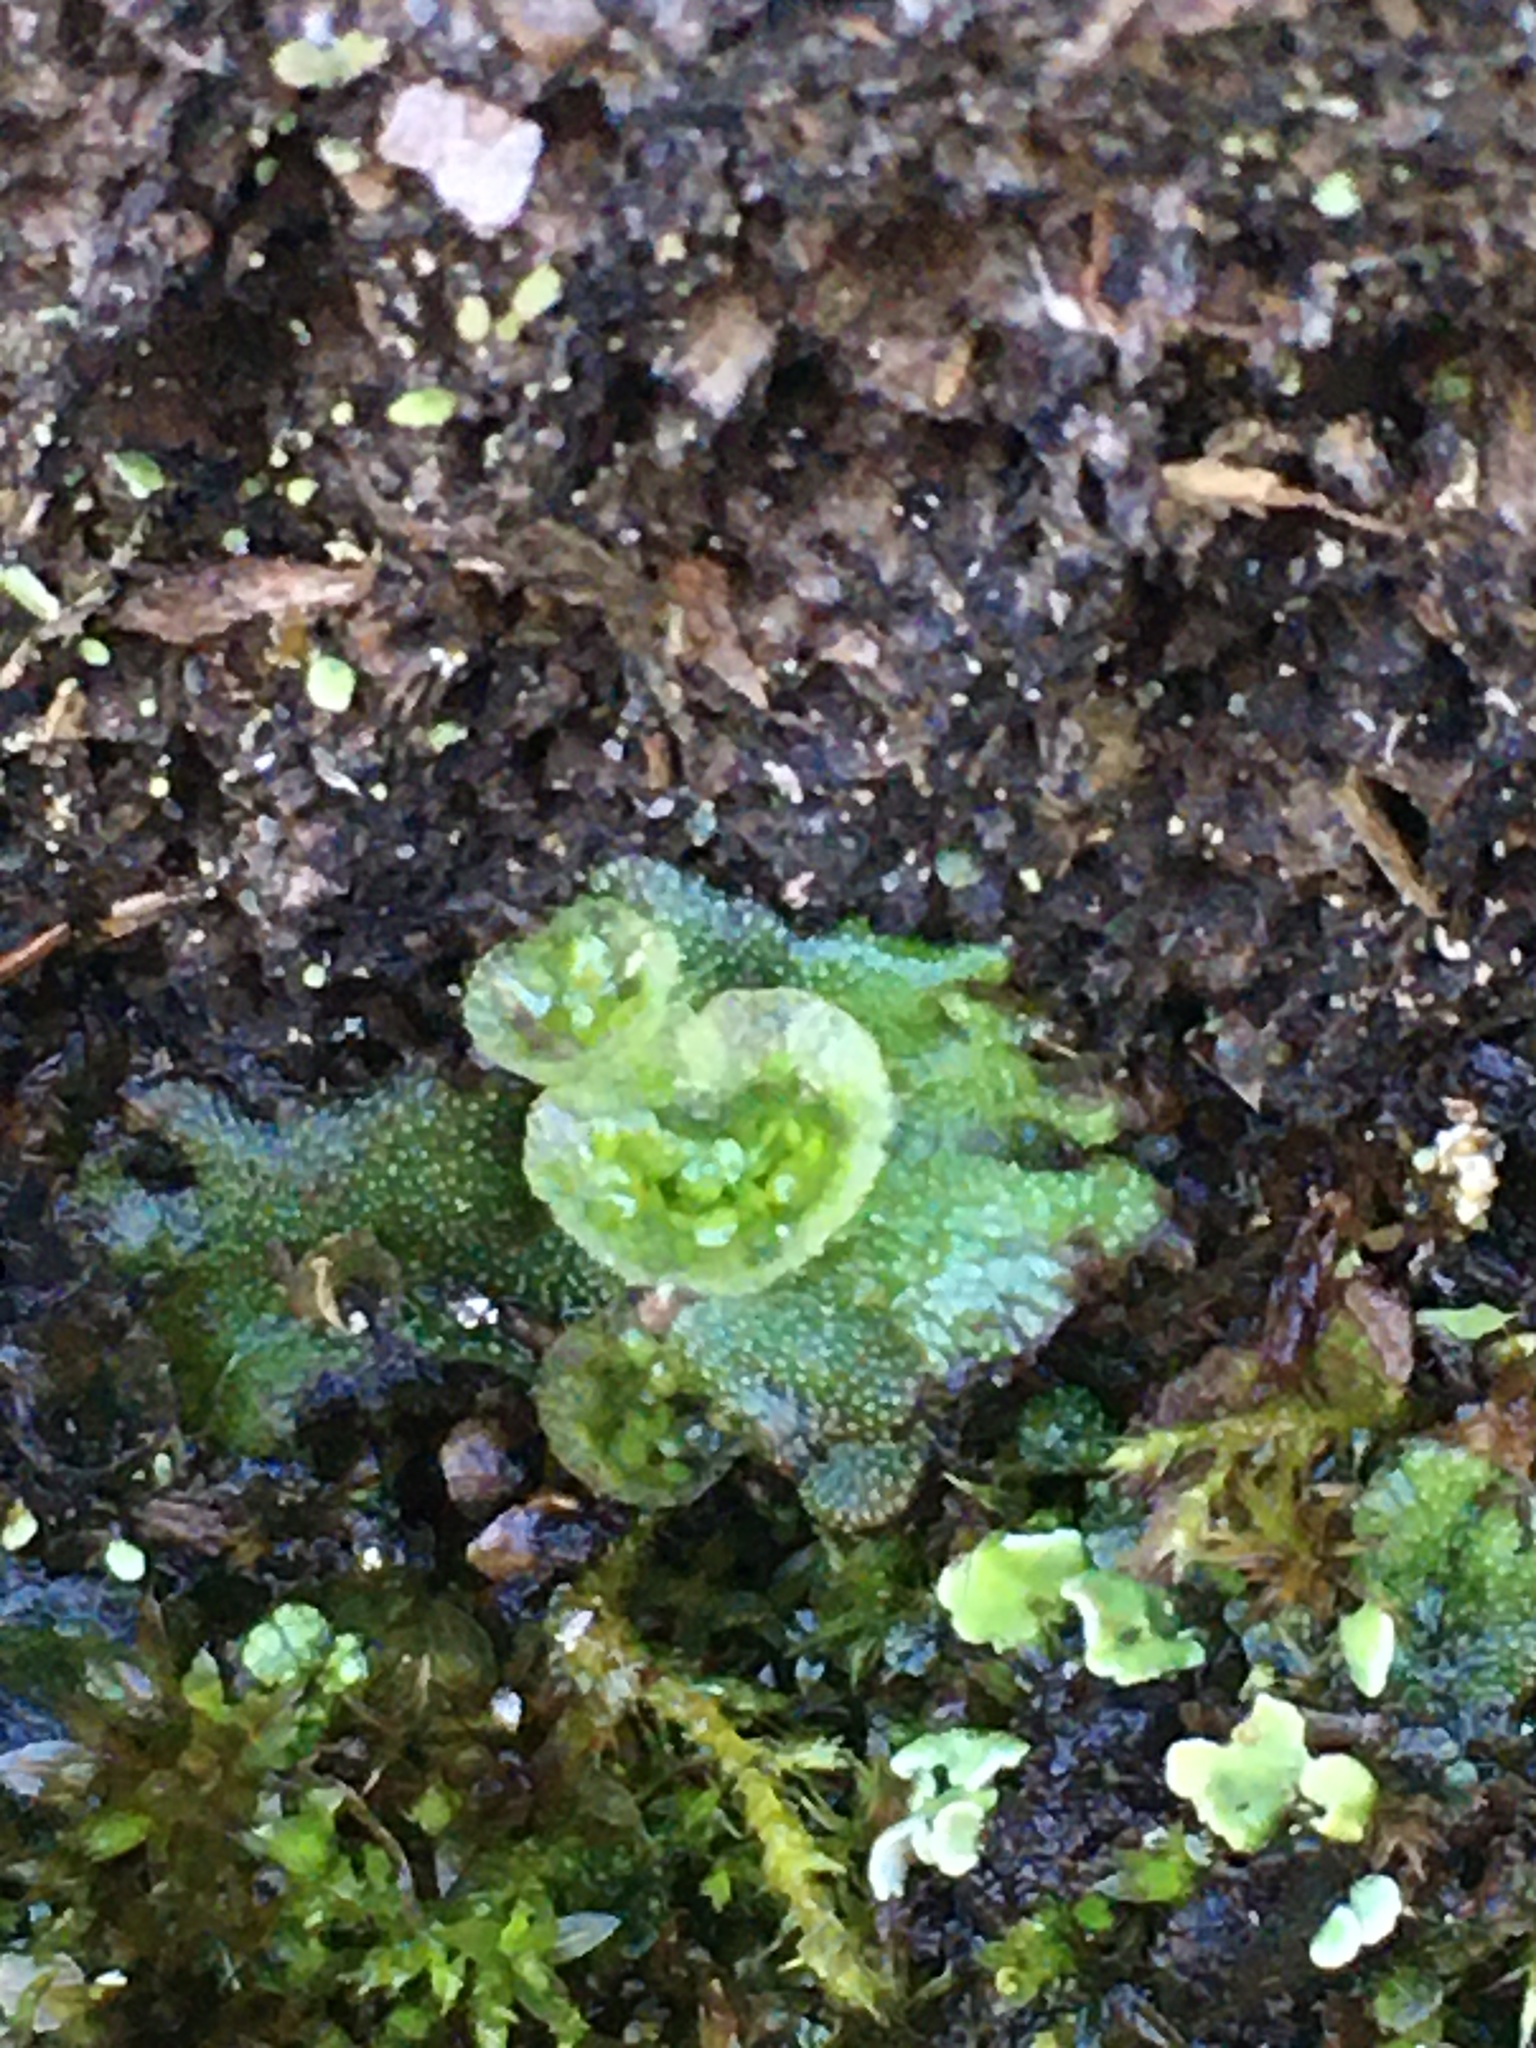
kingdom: Plantae
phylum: Marchantiophyta
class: Marchantiopsida
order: Marchantiales
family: Marchantiaceae
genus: Marchantia
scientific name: Marchantia polymorpha
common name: Common liverwort
